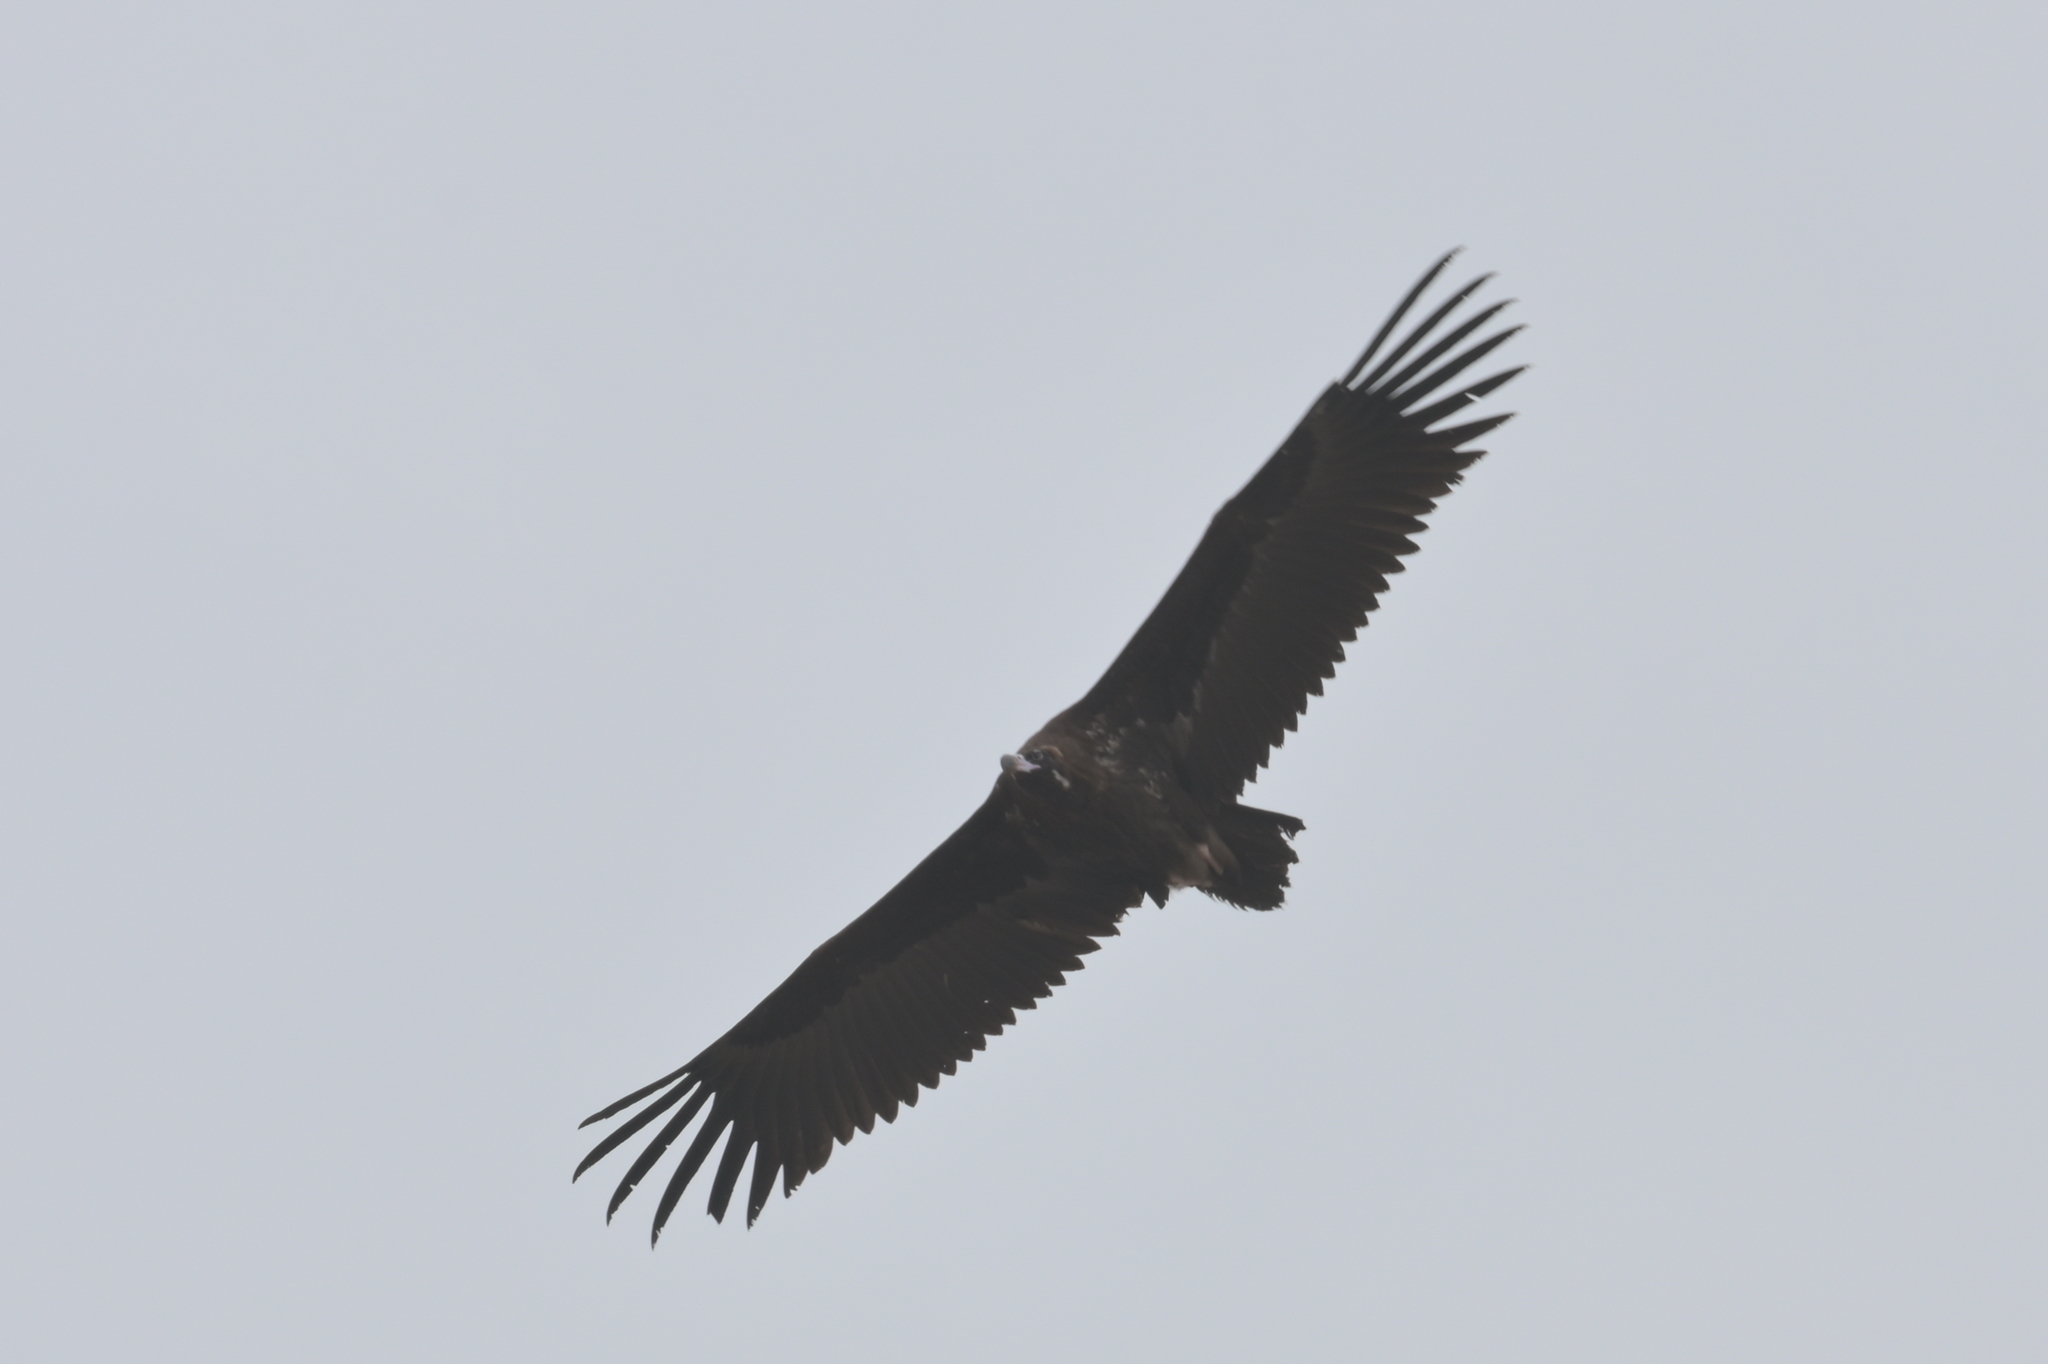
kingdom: Animalia
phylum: Chordata
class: Aves
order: Accipitriformes
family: Accipitridae
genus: Aegypius
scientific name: Aegypius monachus
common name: Cinereous vulture
